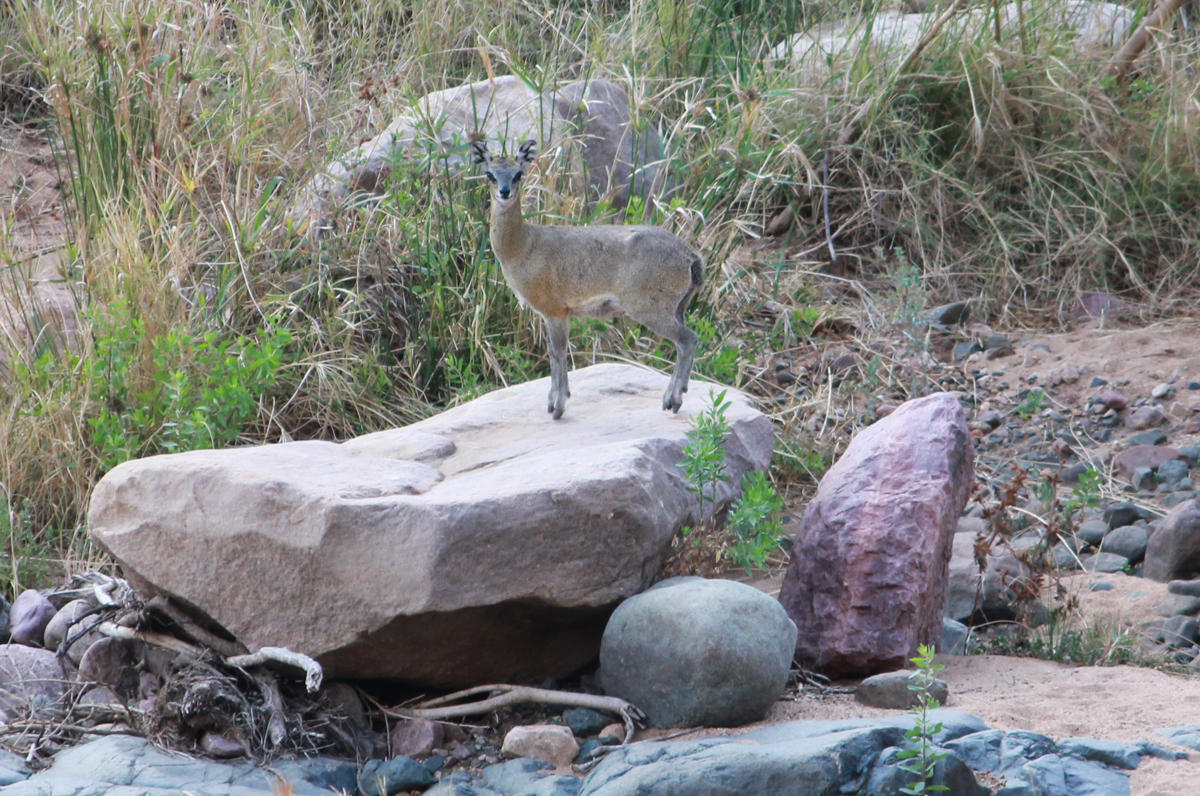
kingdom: Animalia
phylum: Chordata
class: Mammalia
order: Artiodactyla
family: Bovidae
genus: Oreotragus
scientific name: Oreotragus oreotragus
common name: Klipspringer
